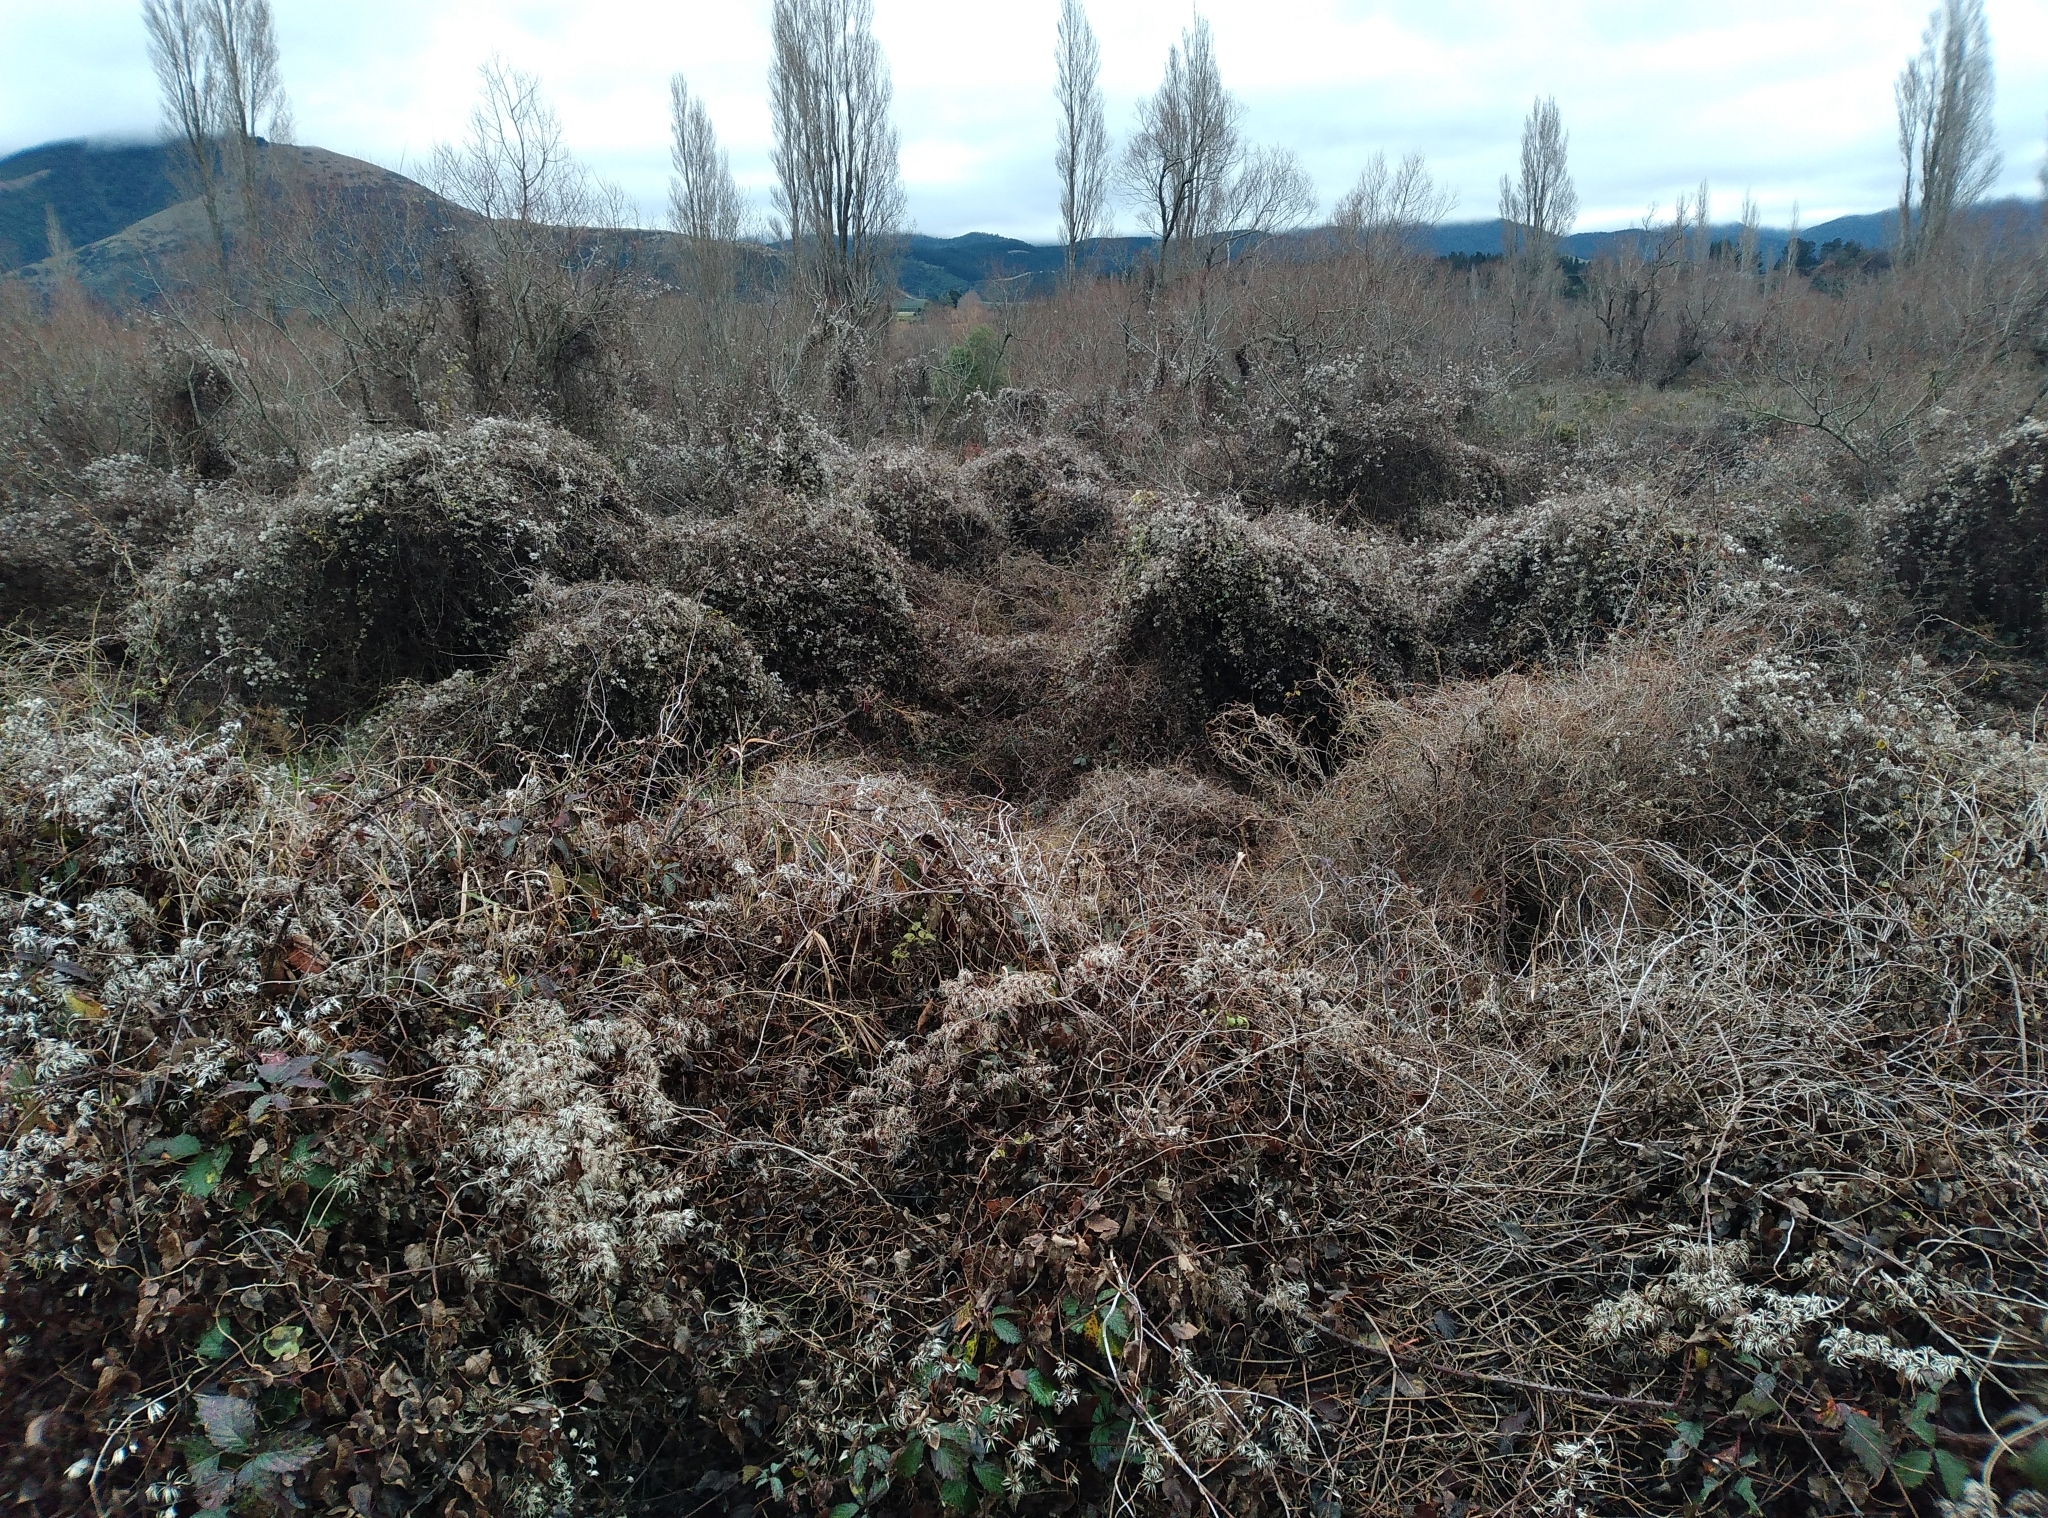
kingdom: Plantae
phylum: Tracheophyta
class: Magnoliopsida
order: Ranunculales
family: Ranunculaceae
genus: Clematis
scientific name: Clematis vitalba
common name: Evergreen clematis
